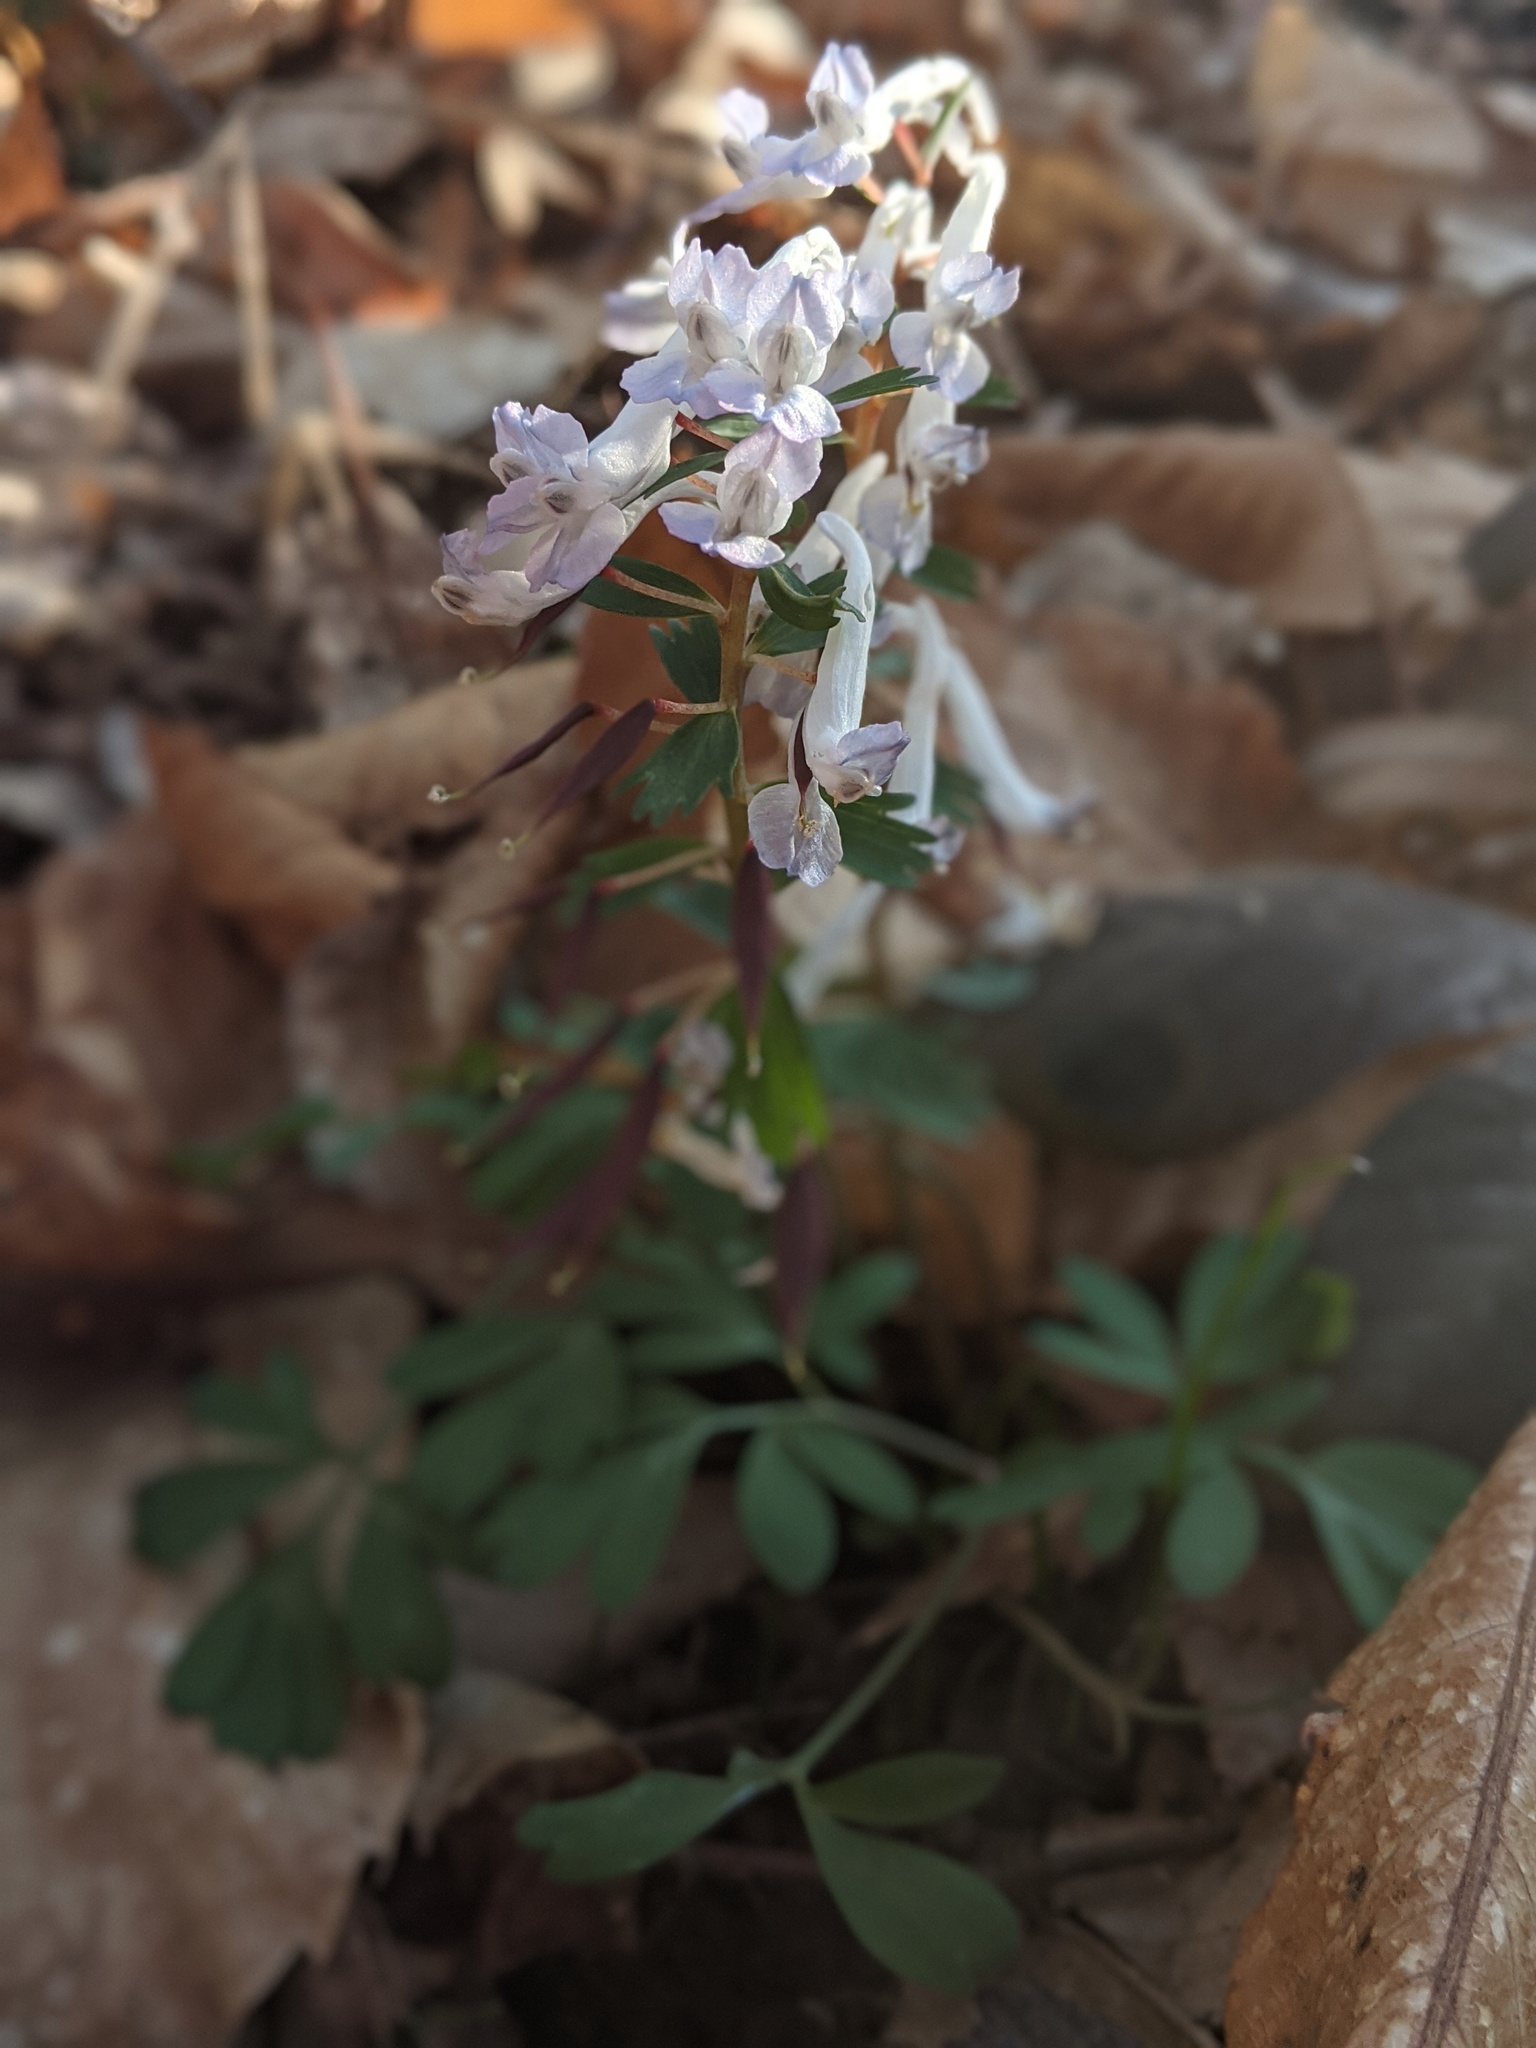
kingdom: Plantae
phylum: Tracheophyta
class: Magnoliopsida
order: Ranunculales
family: Papaveraceae
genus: Corydalis
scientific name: Corydalis solida
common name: Bird-in-a-bush
